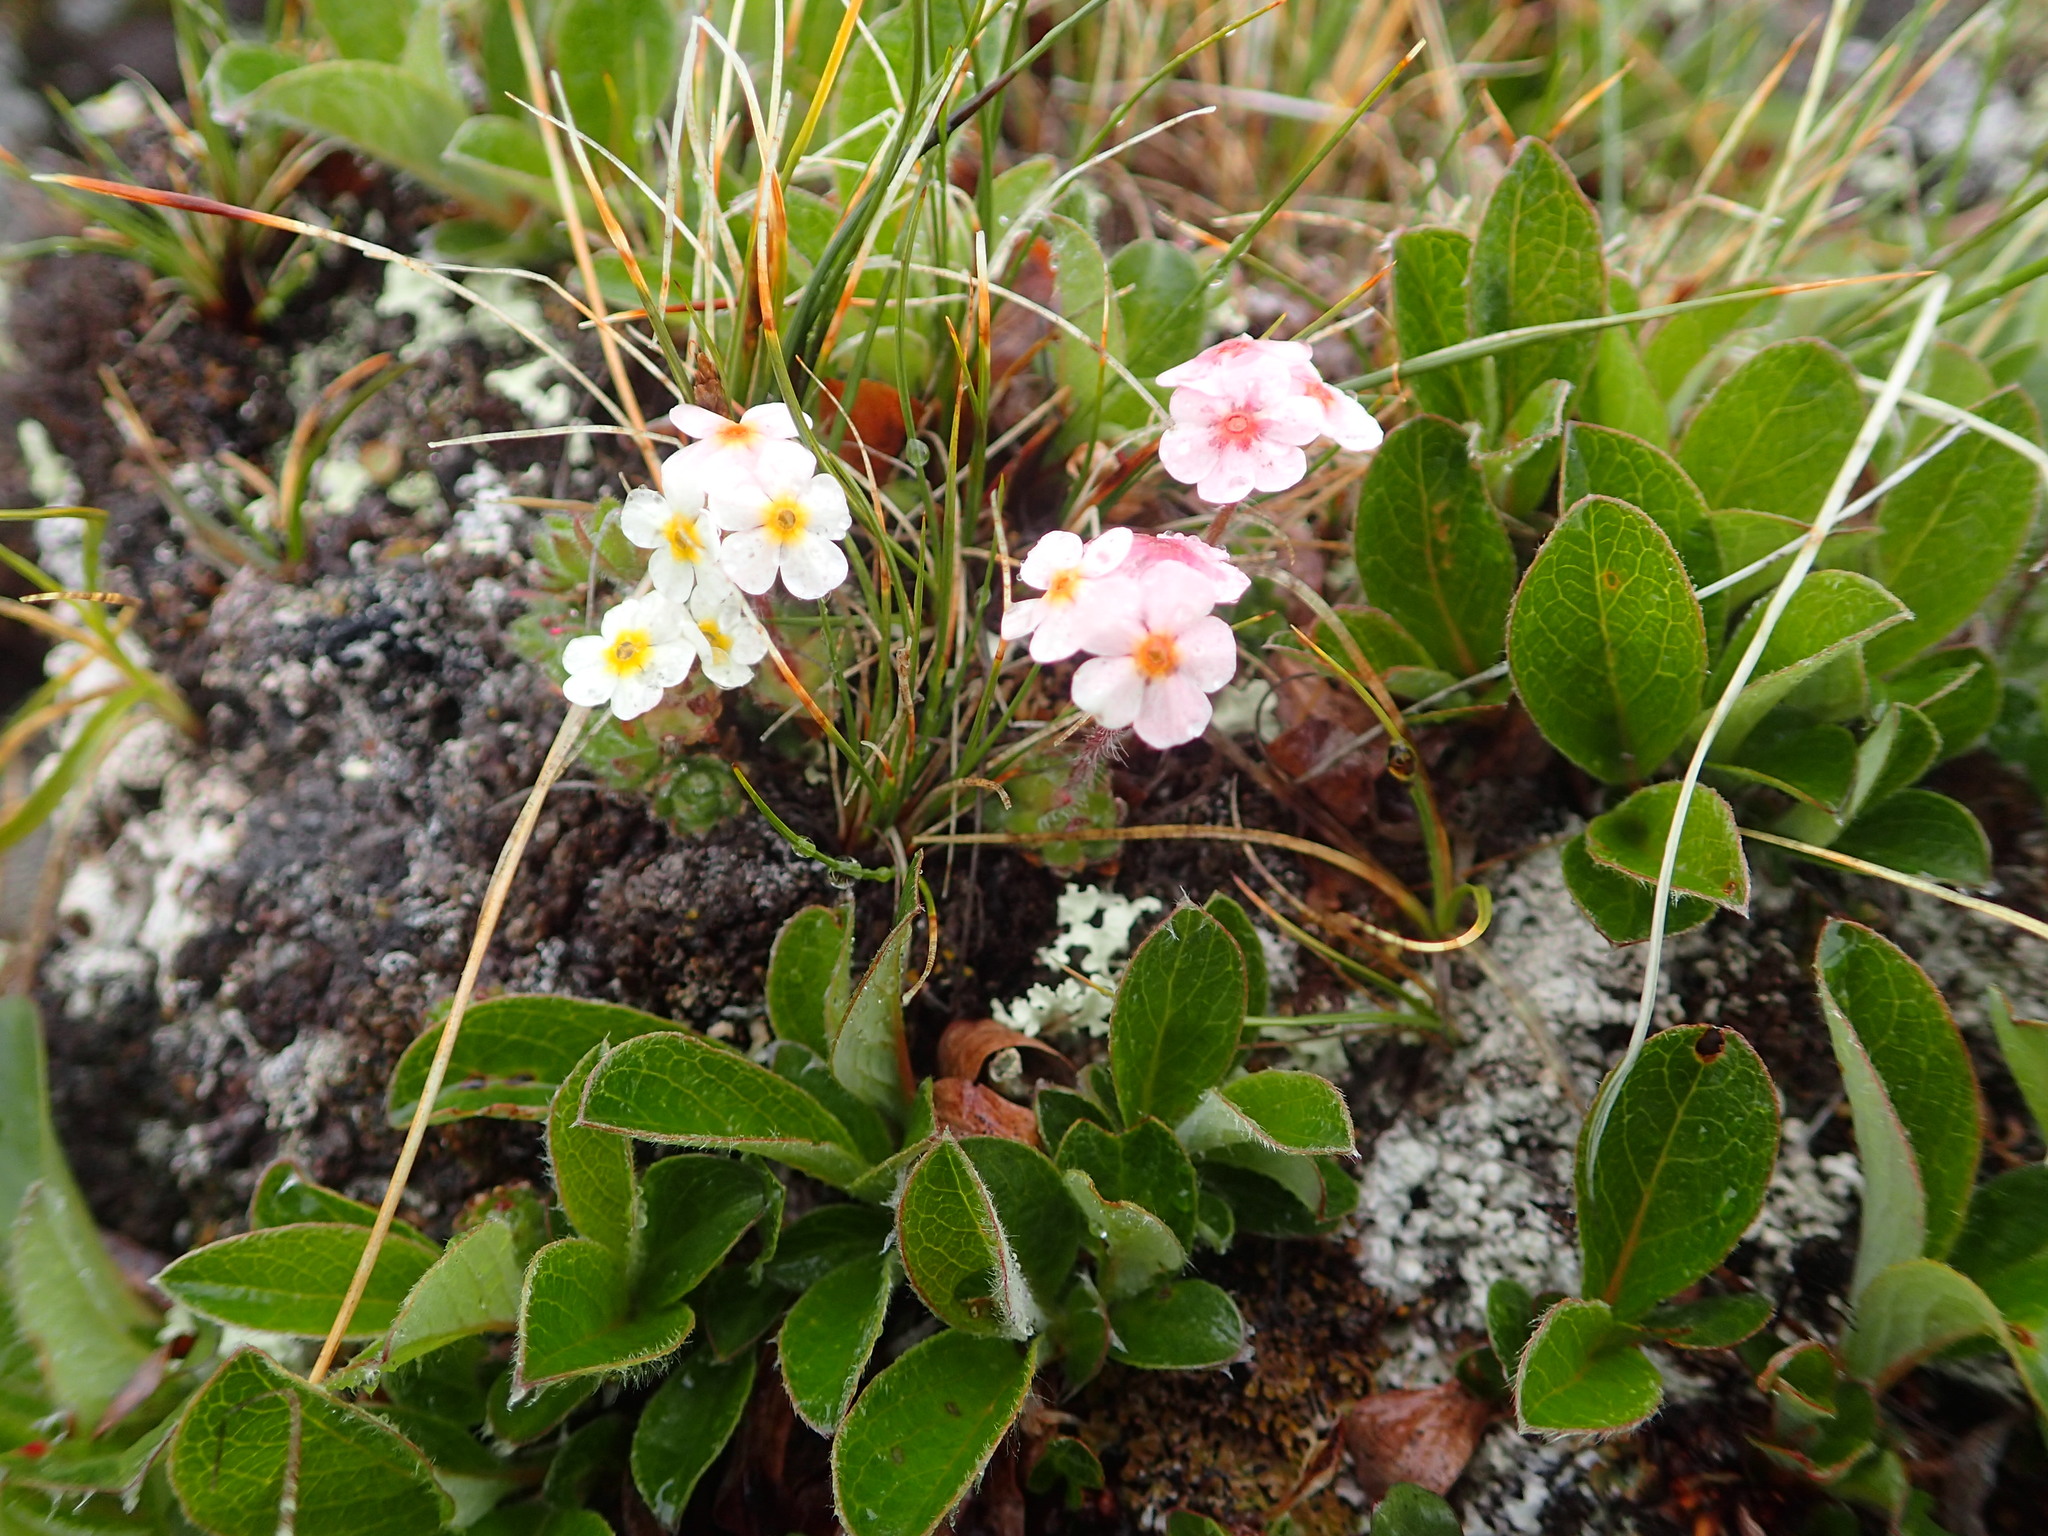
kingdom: Plantae
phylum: Tracheophyta
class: Magnoliopsida
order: Ericales
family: Primulaceae
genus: Androsace
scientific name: Androsace chamaejasme
